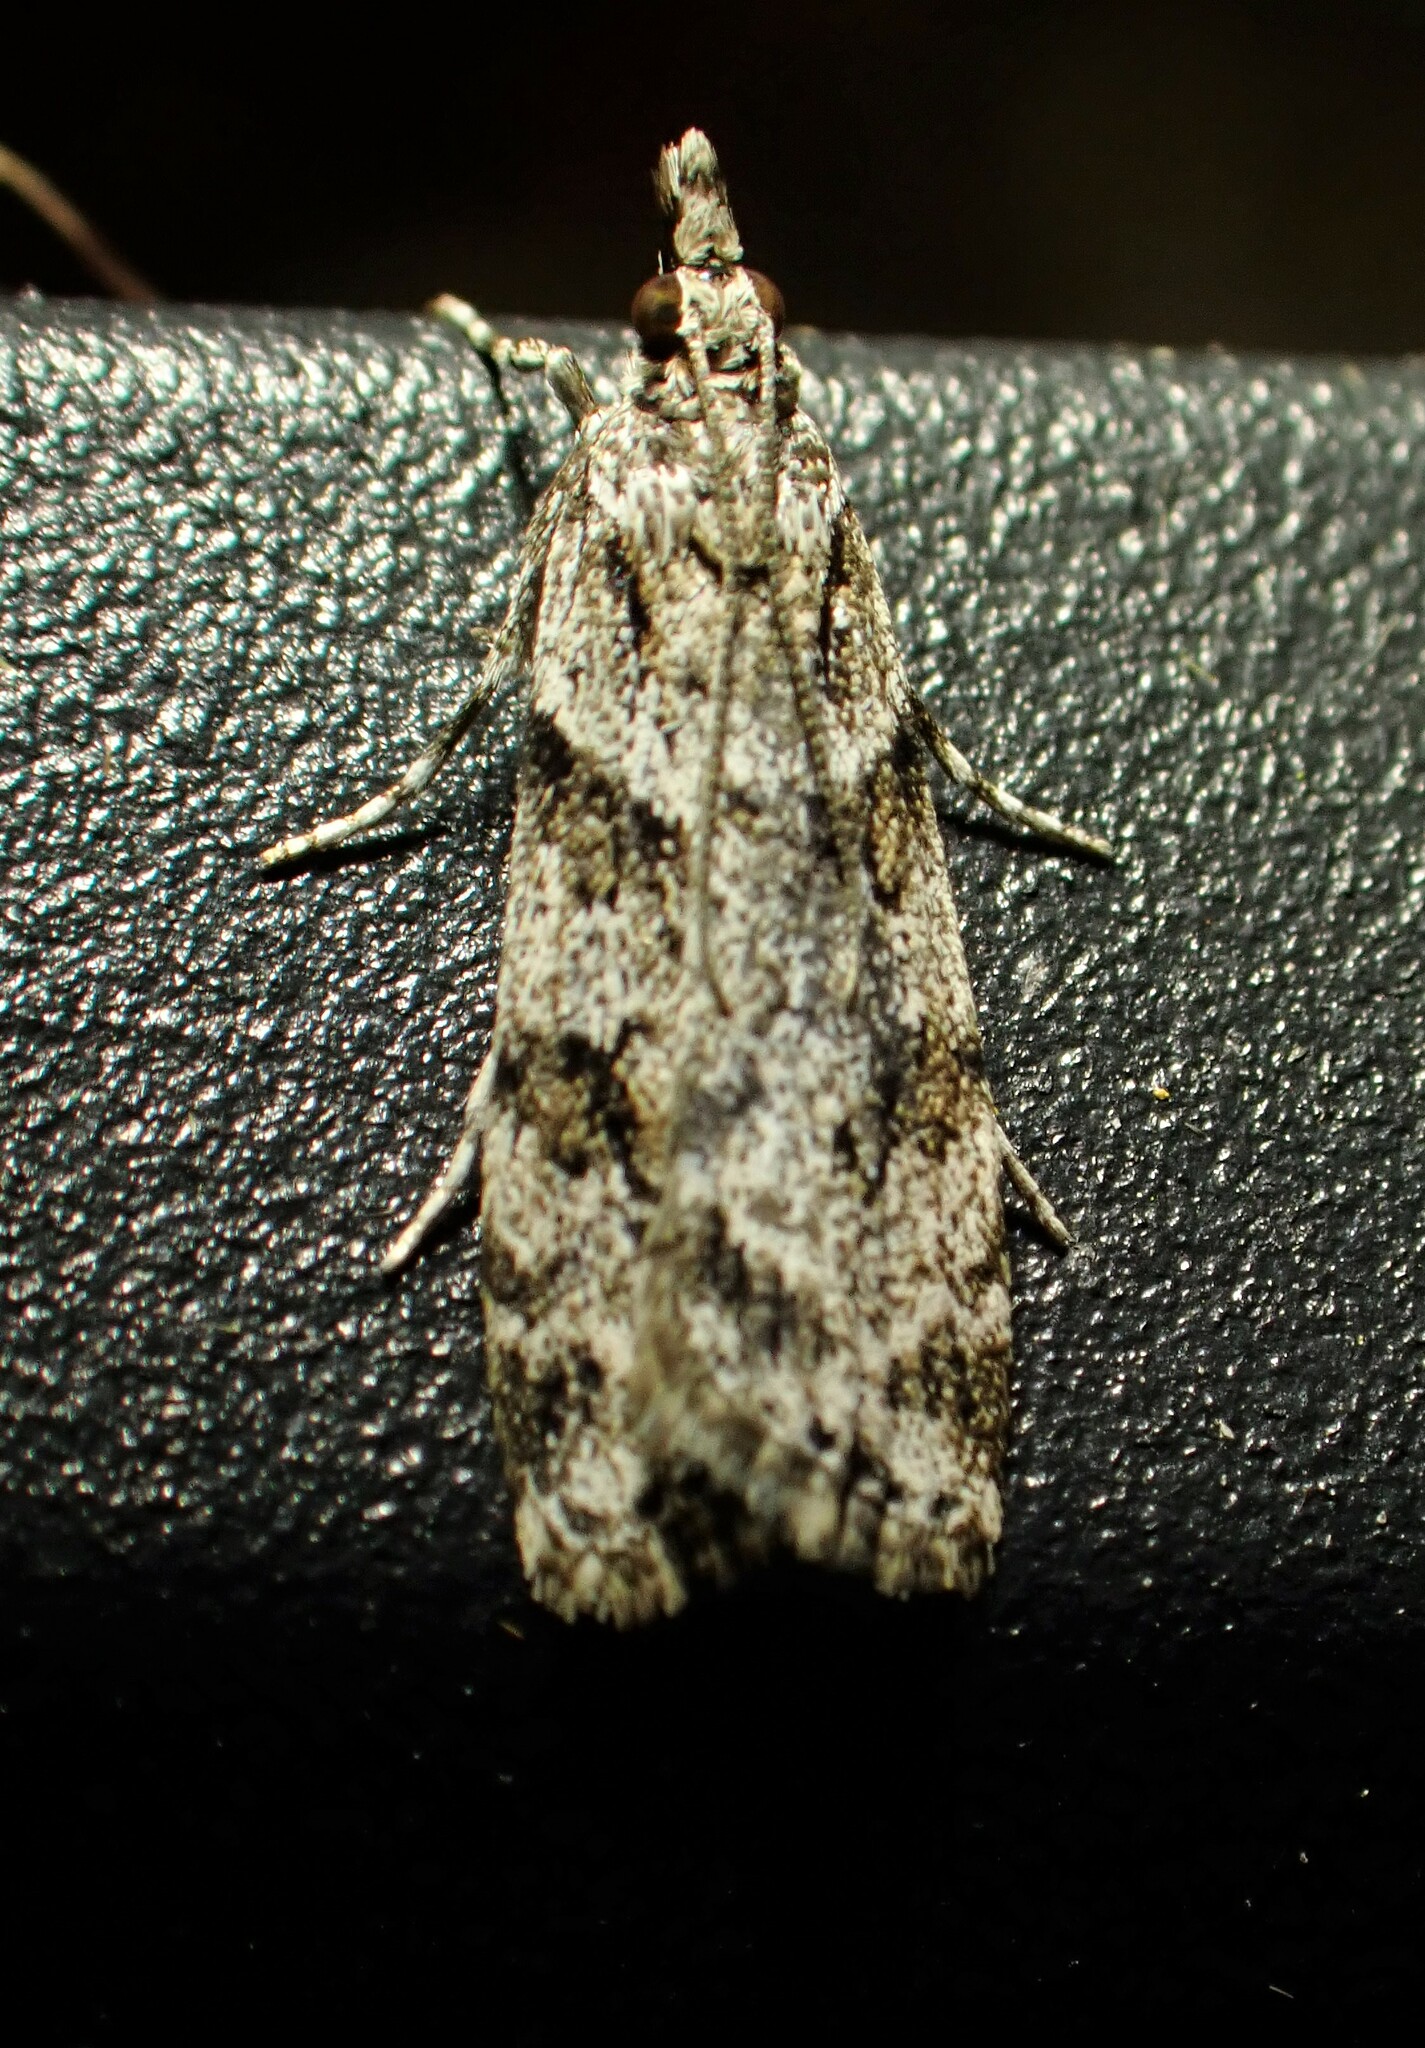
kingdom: Animalia
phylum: Arthropoda
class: Insecta
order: Lepidoptera
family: Crambidae
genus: Scoparia
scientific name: Scoparia biplagialis
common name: Double-striped scoparia moth
